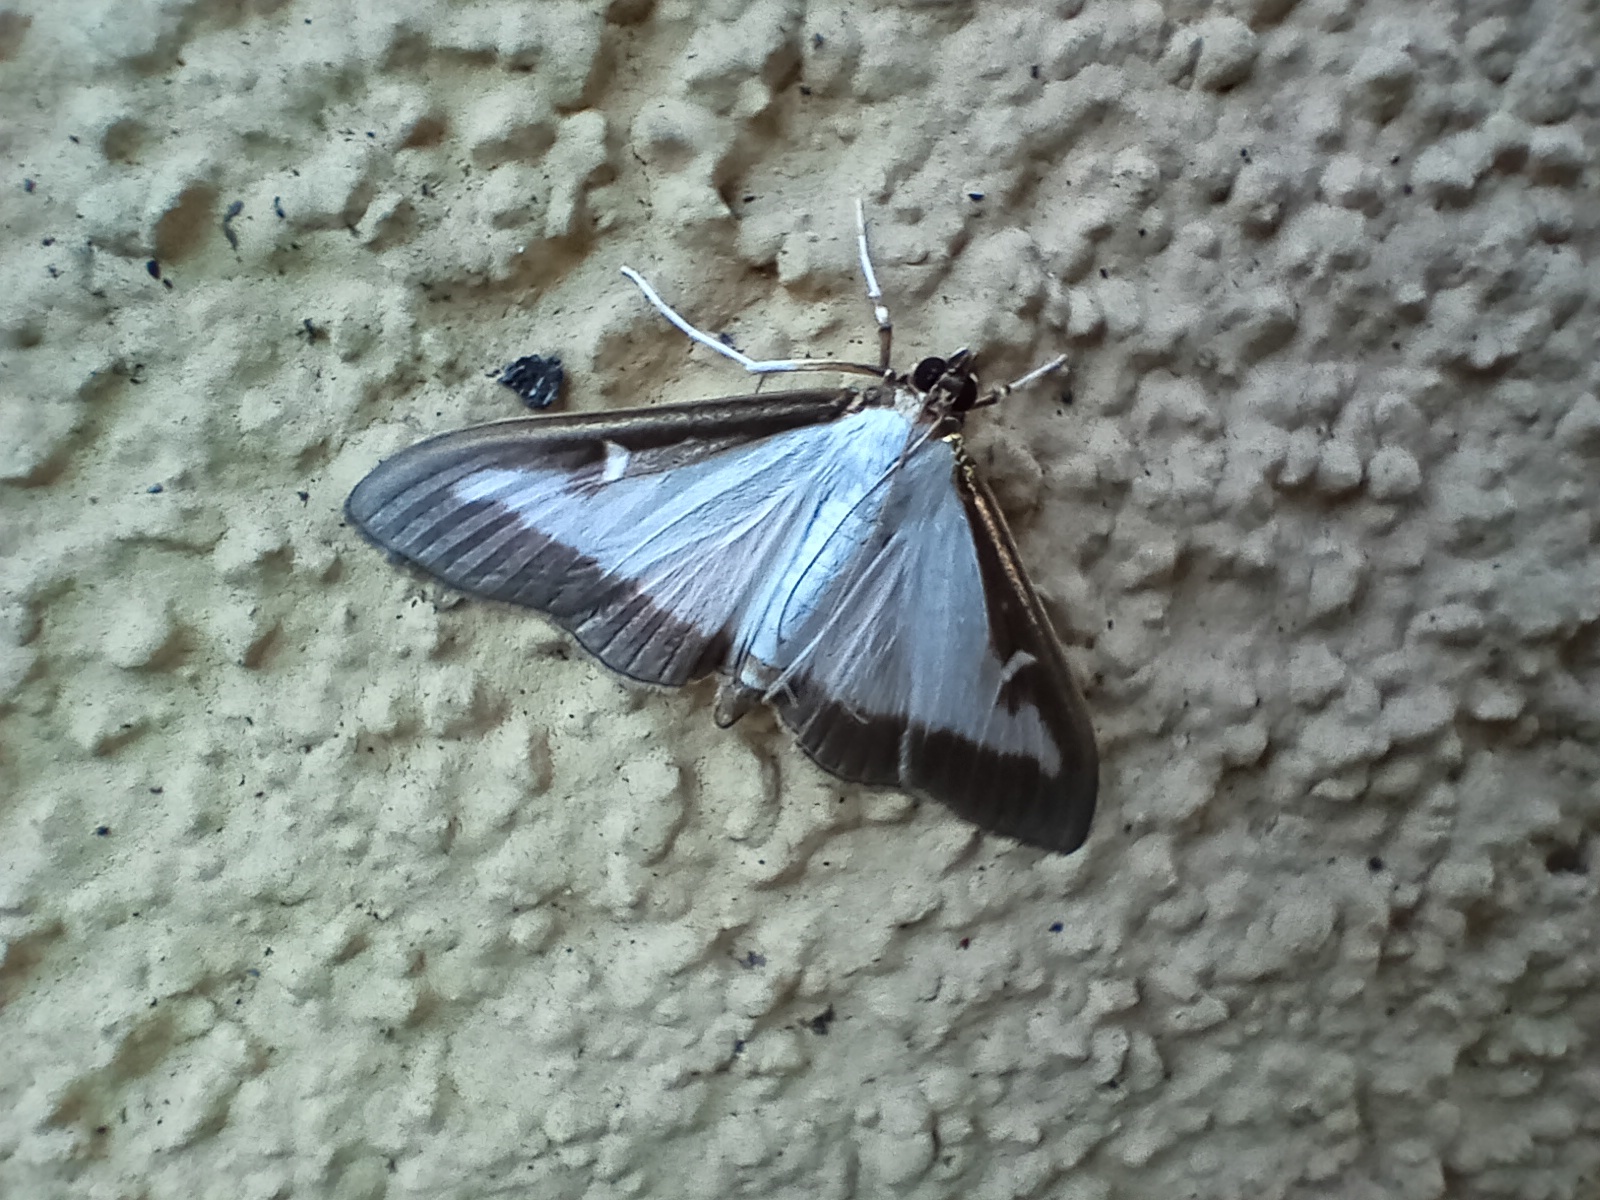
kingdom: Animalia
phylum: Arthropoda
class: Insecta
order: Lepidoptera
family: Crambidae
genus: Cydalima
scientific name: Cydalima perspectalis
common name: Box tree moth
